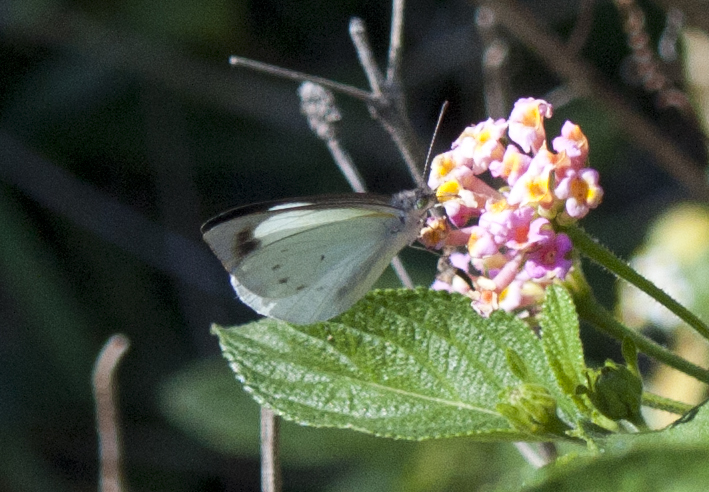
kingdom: Animalia
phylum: Arthropoda
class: Insecta
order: Lepidoptera
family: Pieridae
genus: Elodina
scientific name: Elodina angulipennis
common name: Common pearl white
